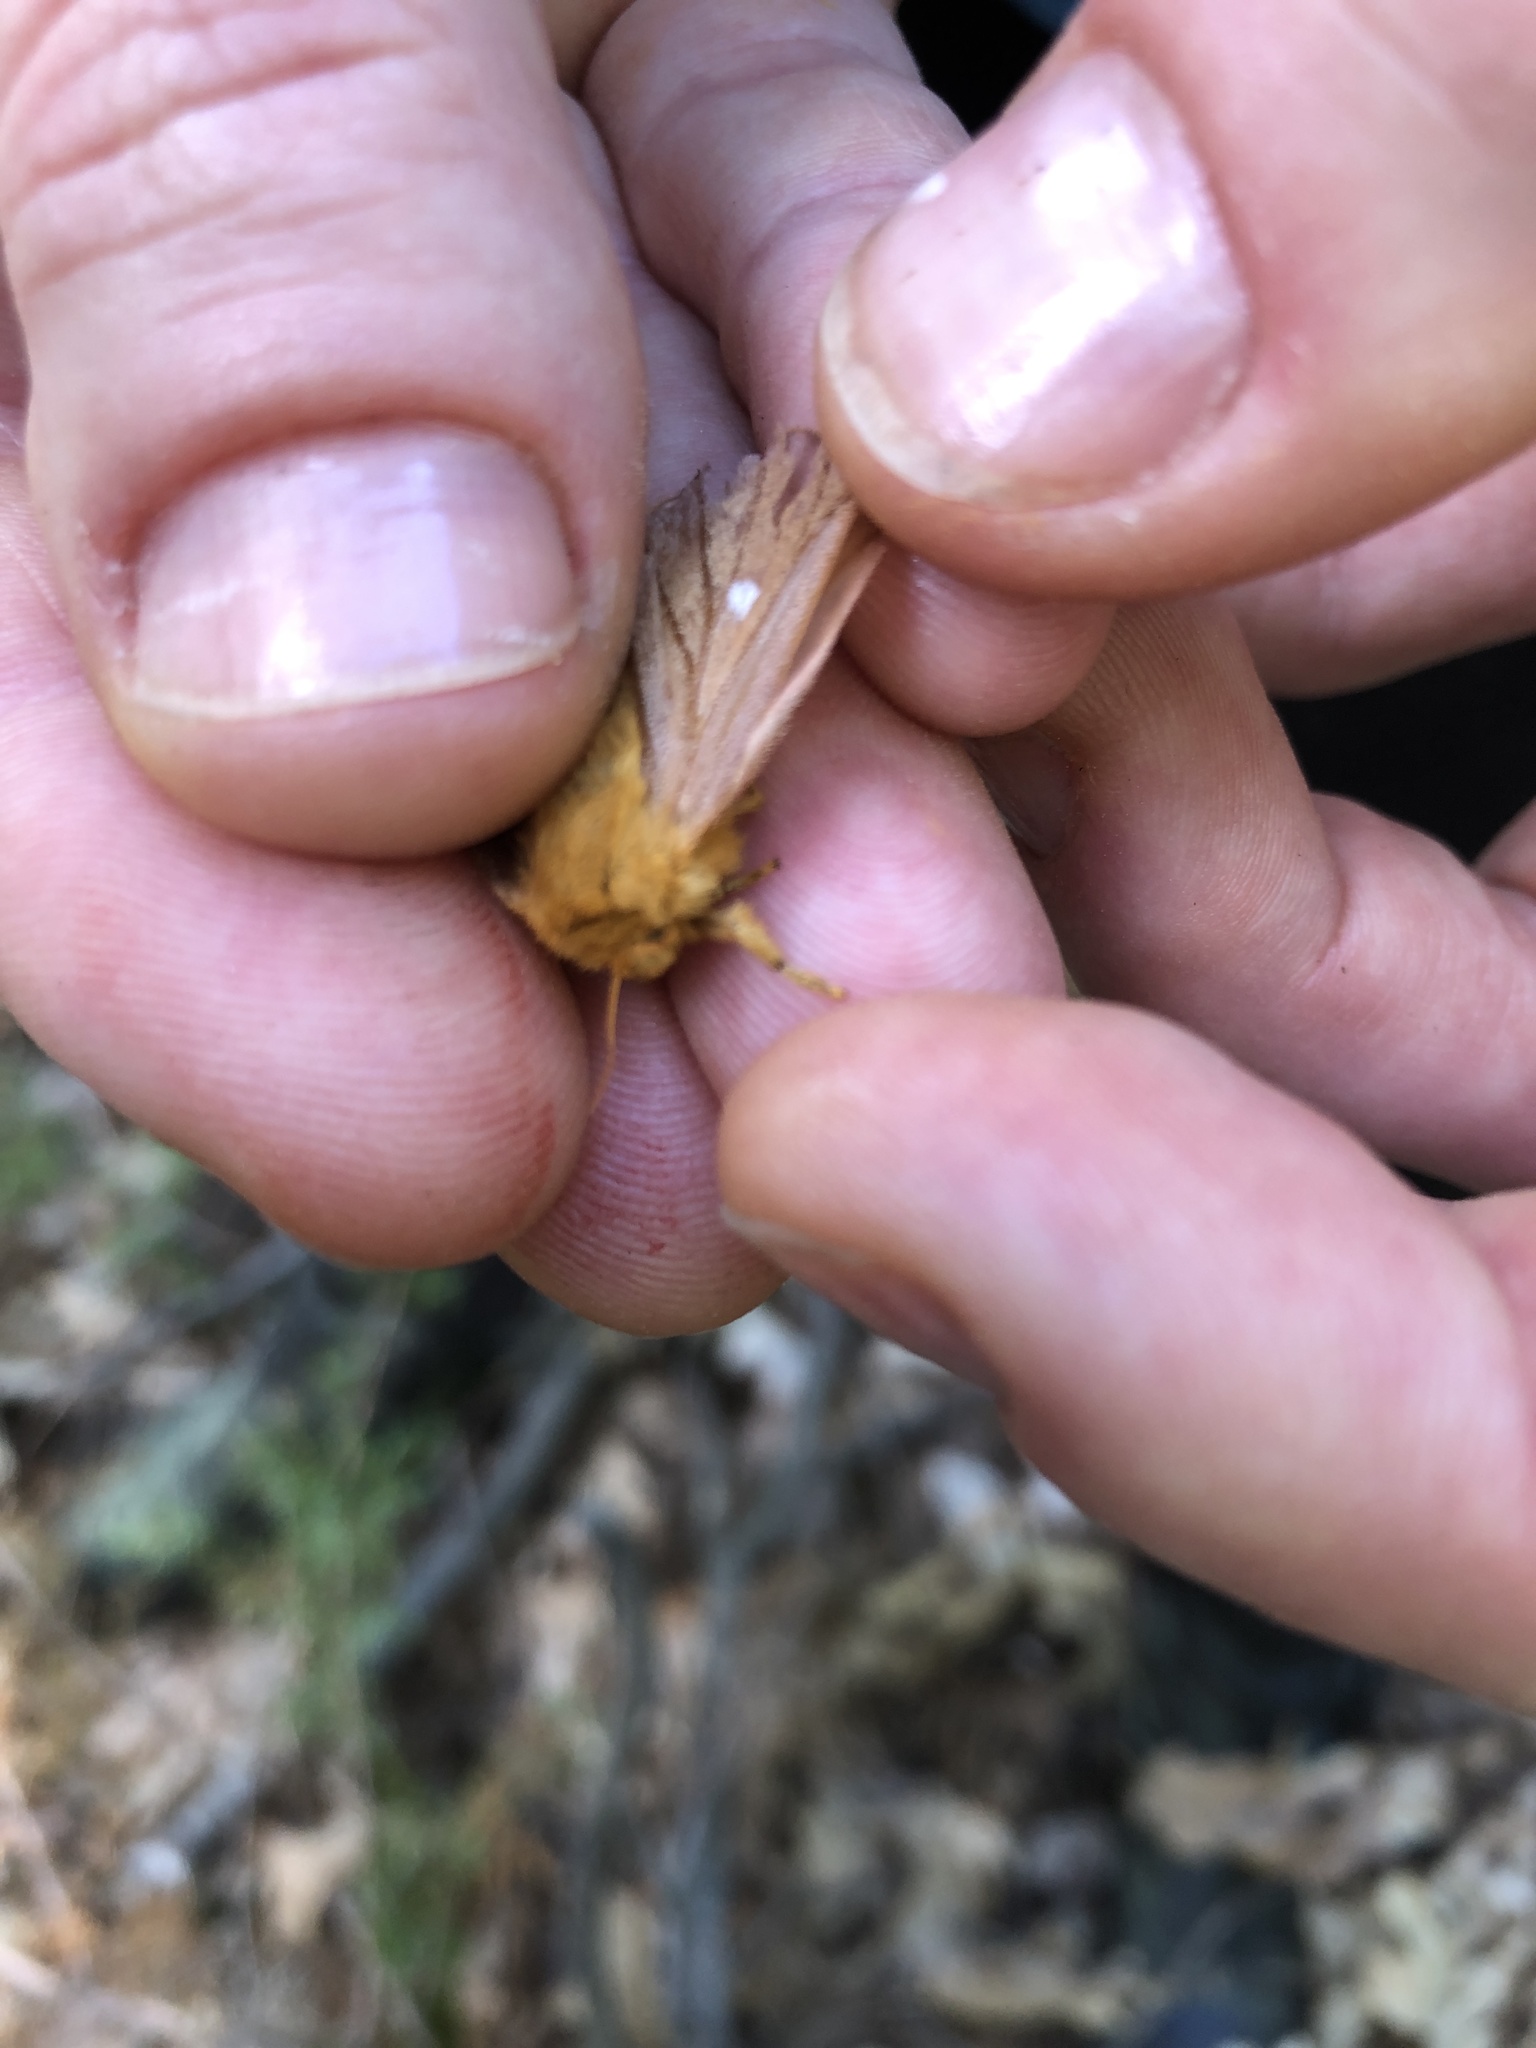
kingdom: Animalia
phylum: Arthropoda
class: Insecta
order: Lepidoptera
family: Saturniidae
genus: Anisota
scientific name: Anisota virginiensis
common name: Pink striped oakworm moth
